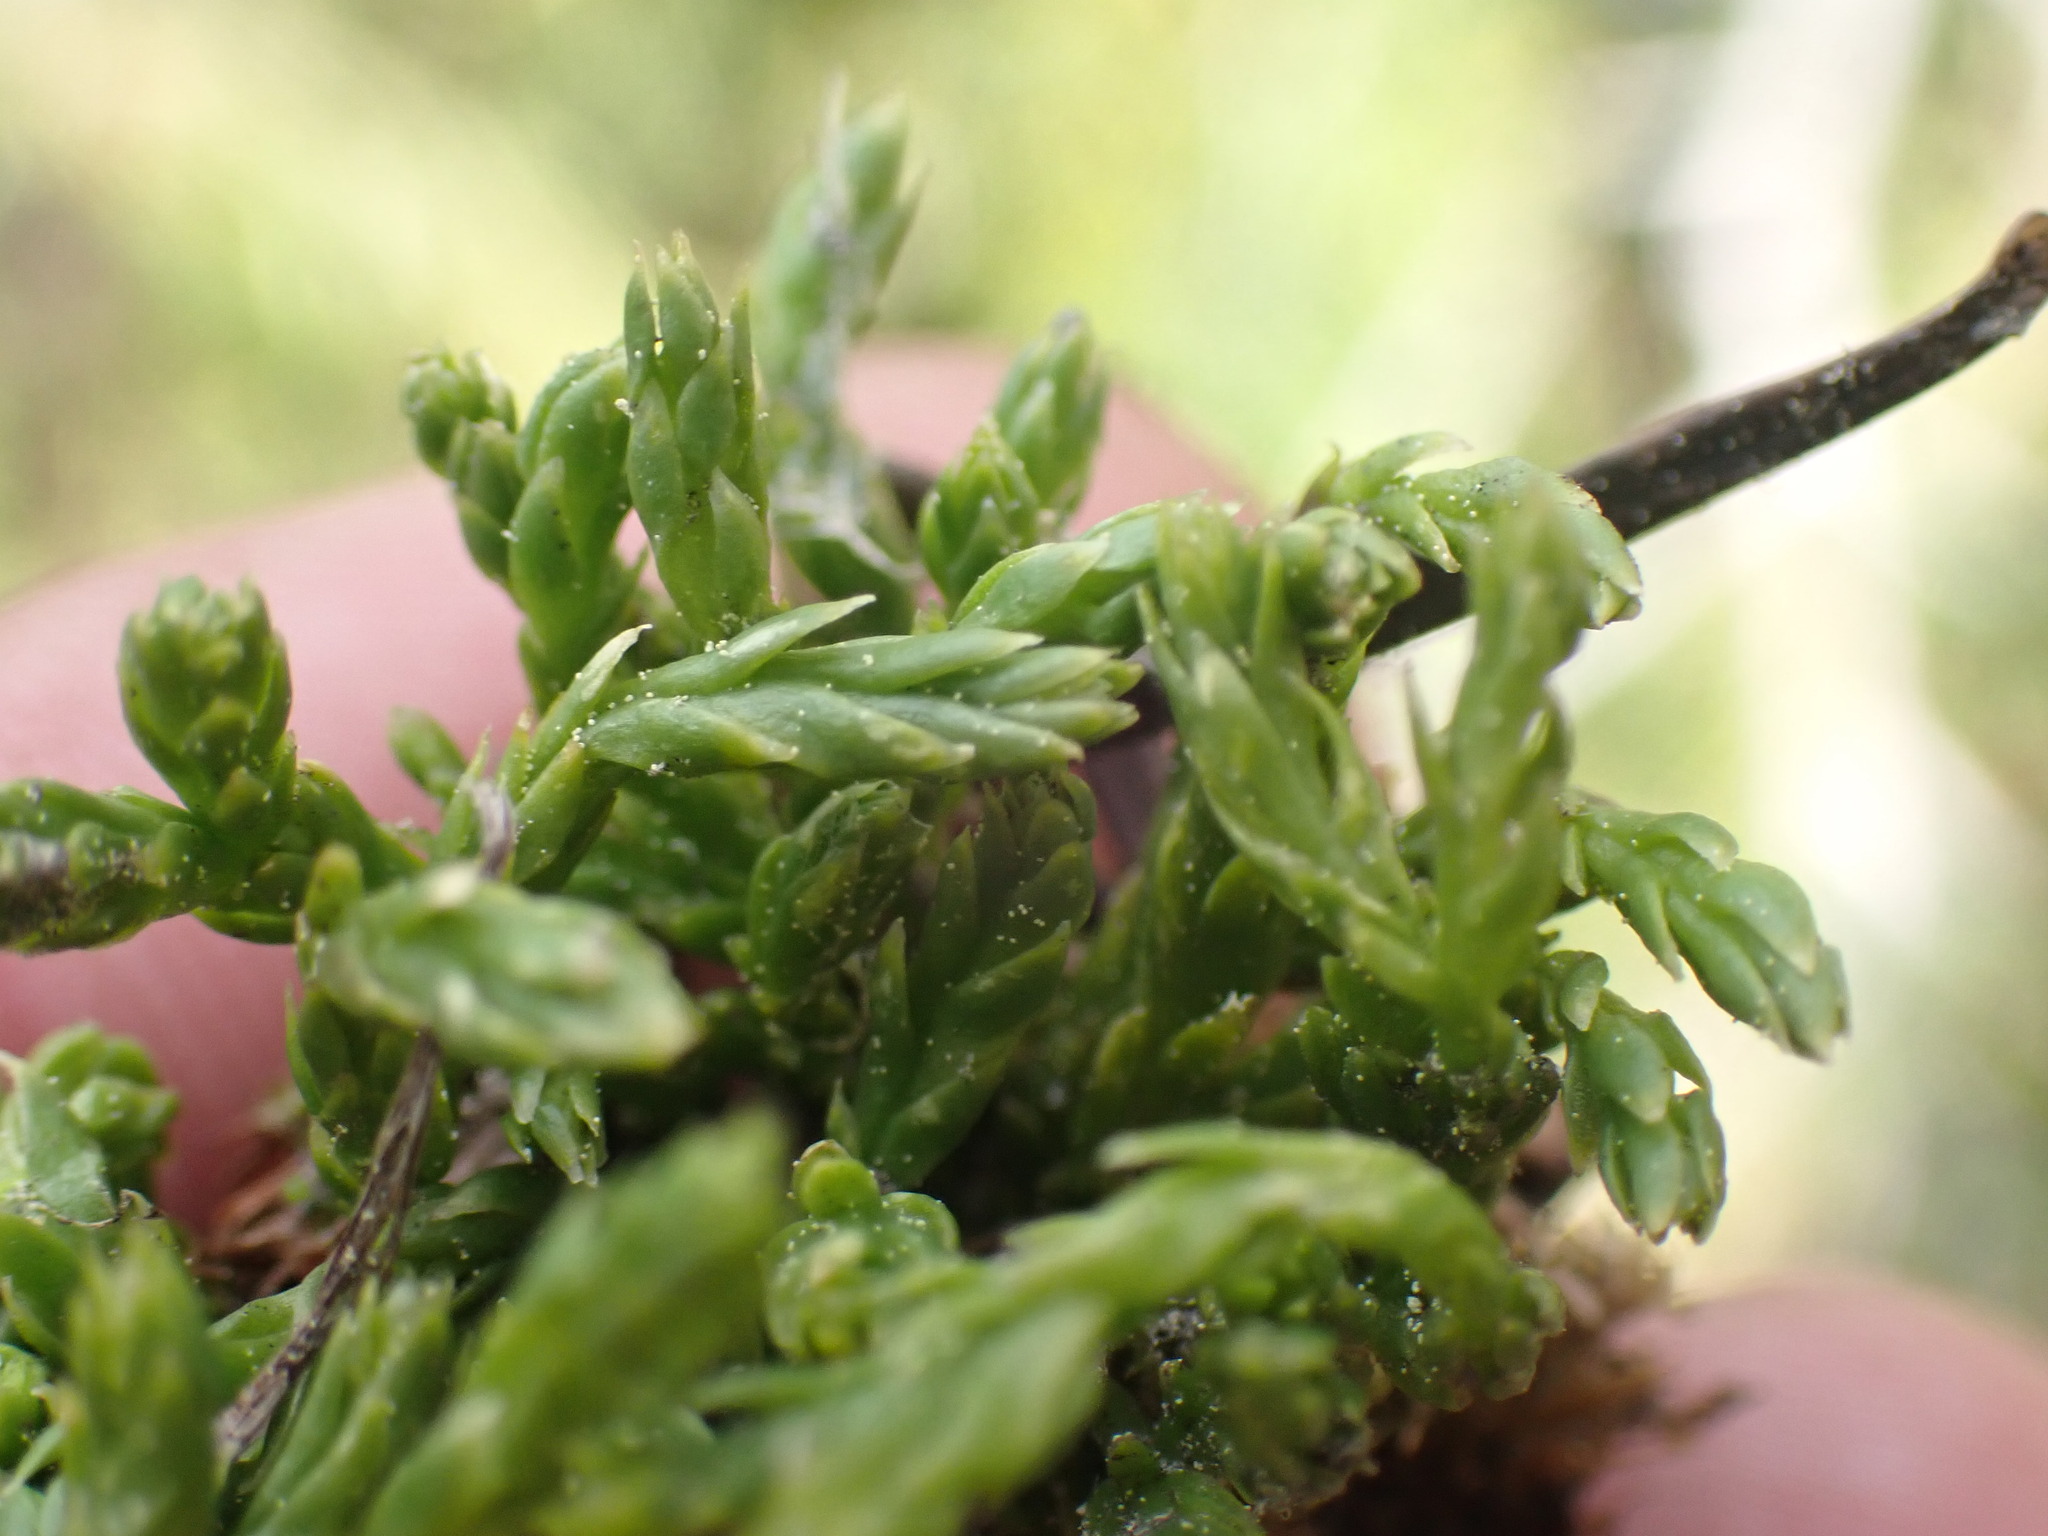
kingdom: Plantae
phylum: Tracheophyta
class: Lycopodiopsida
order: Lycopodiales
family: Lycopodiaceae
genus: Diphasiastrum
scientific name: Diphasiastrum alpinum
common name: Alpine clubmoss
